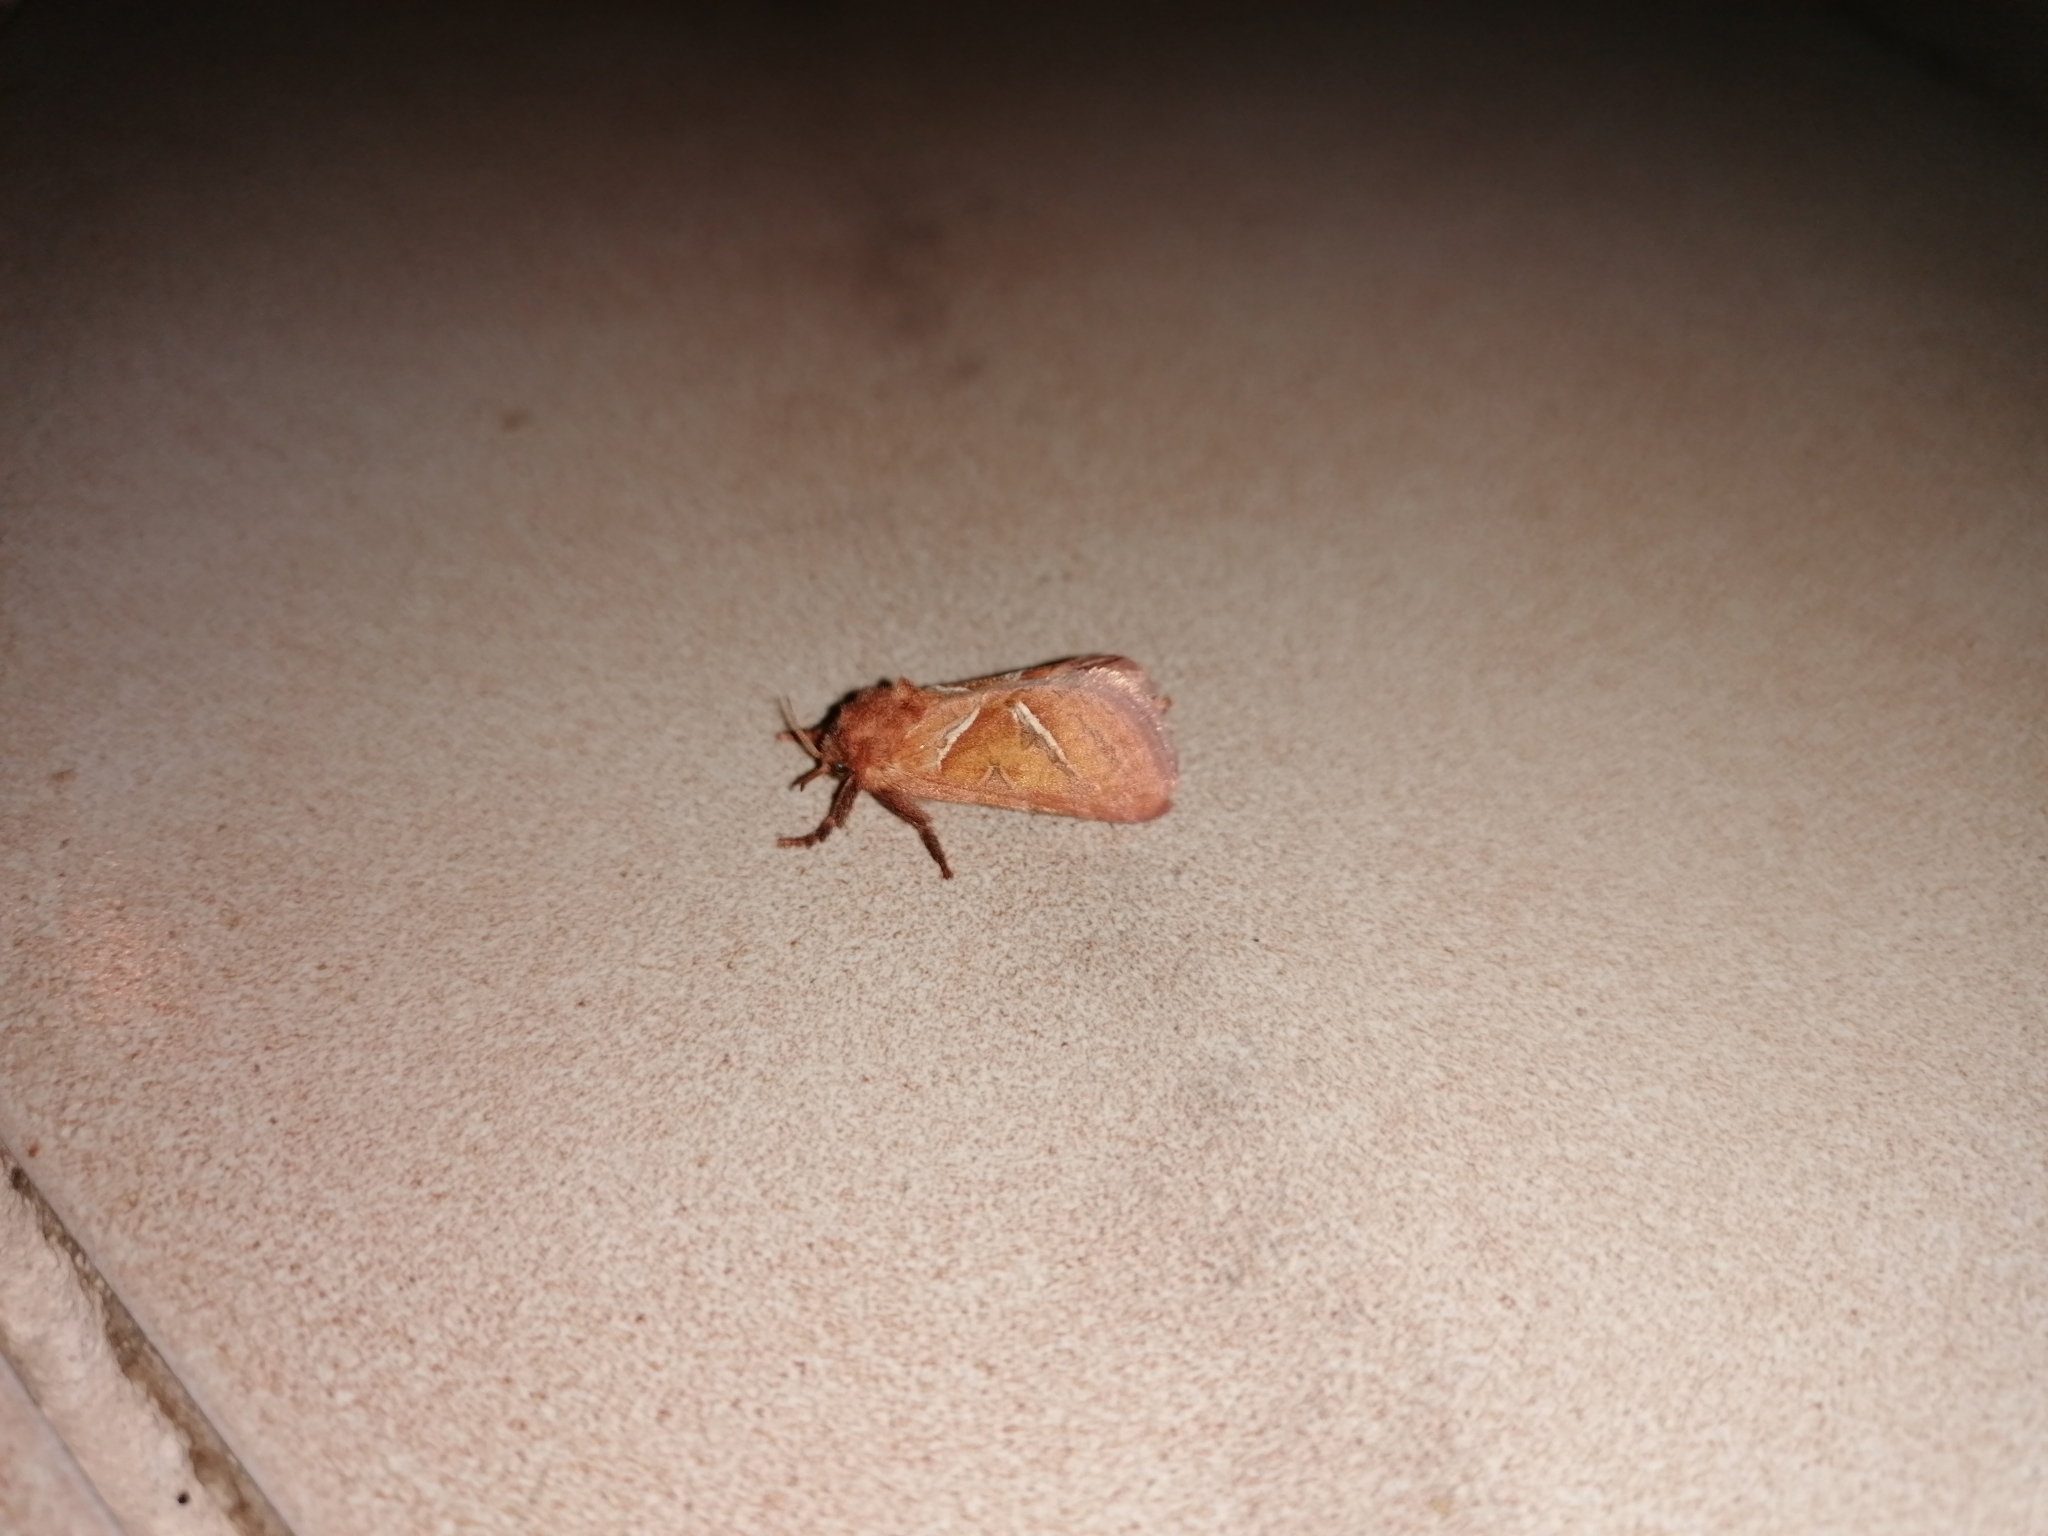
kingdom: Animalia
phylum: Arthropoda
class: Insecta
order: Lepidoptera
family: Hepialidae
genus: Triodia
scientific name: Triodia sylvina
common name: Orange swift
